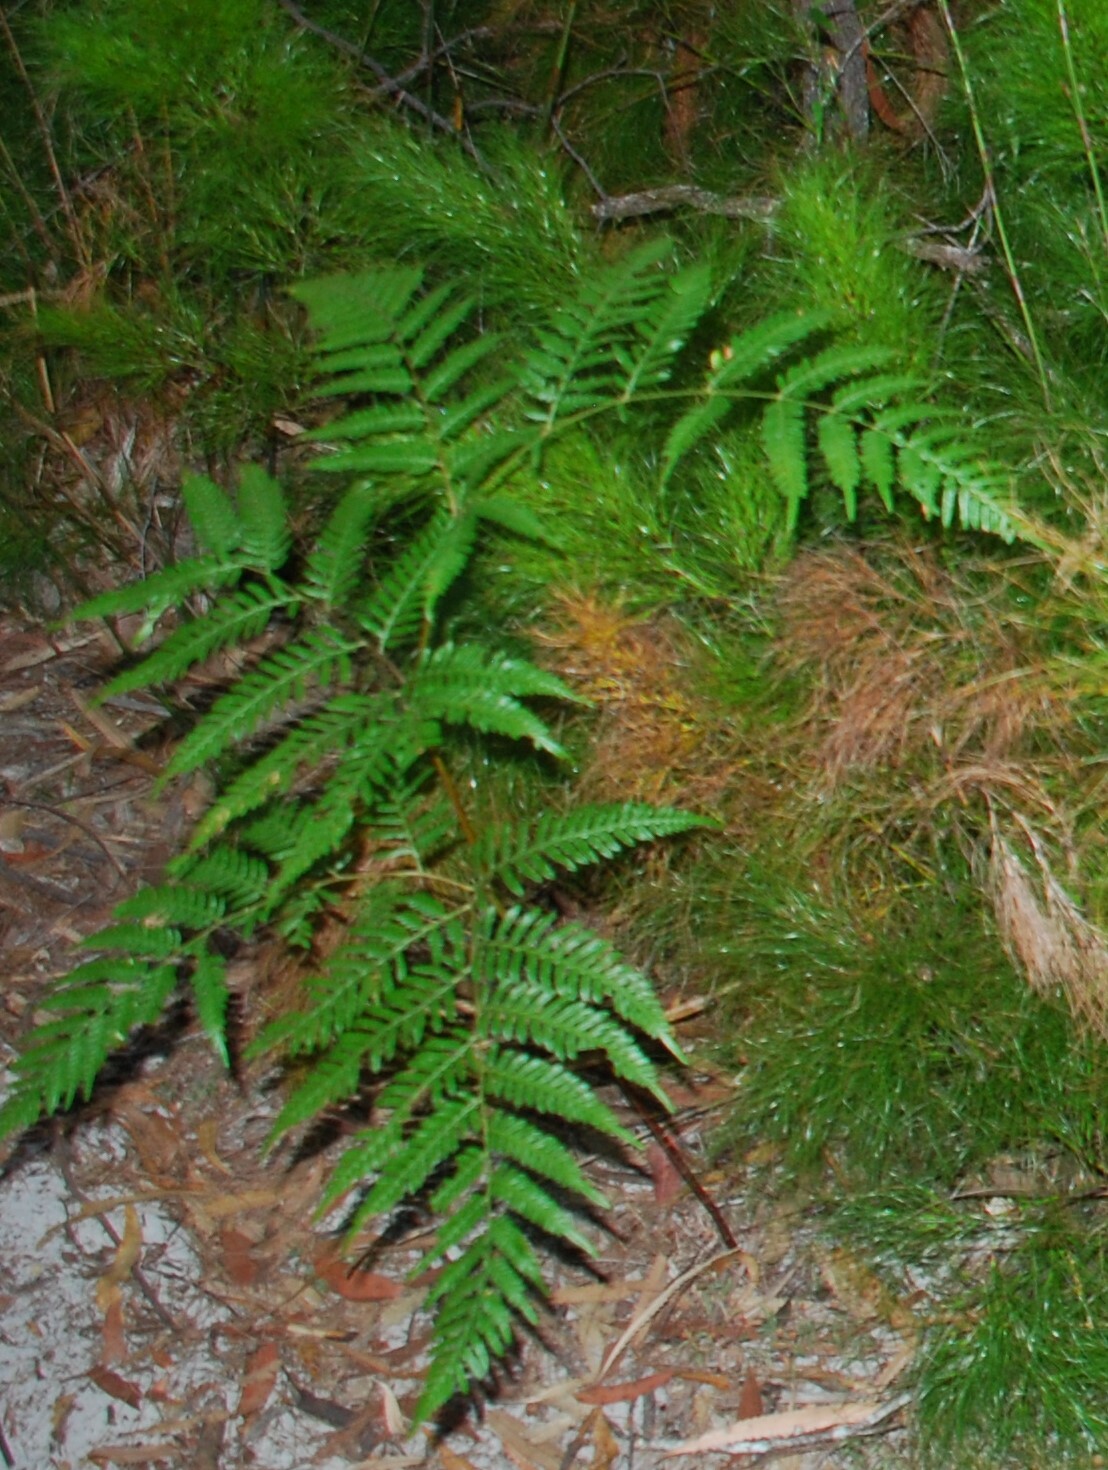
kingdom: Plantae
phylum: Tracheophyta
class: Polypodiopsida
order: Polypodiales
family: Dennstaedtiaceae
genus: Pteridium
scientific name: Pteridium esculentum
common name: Bracken fern
